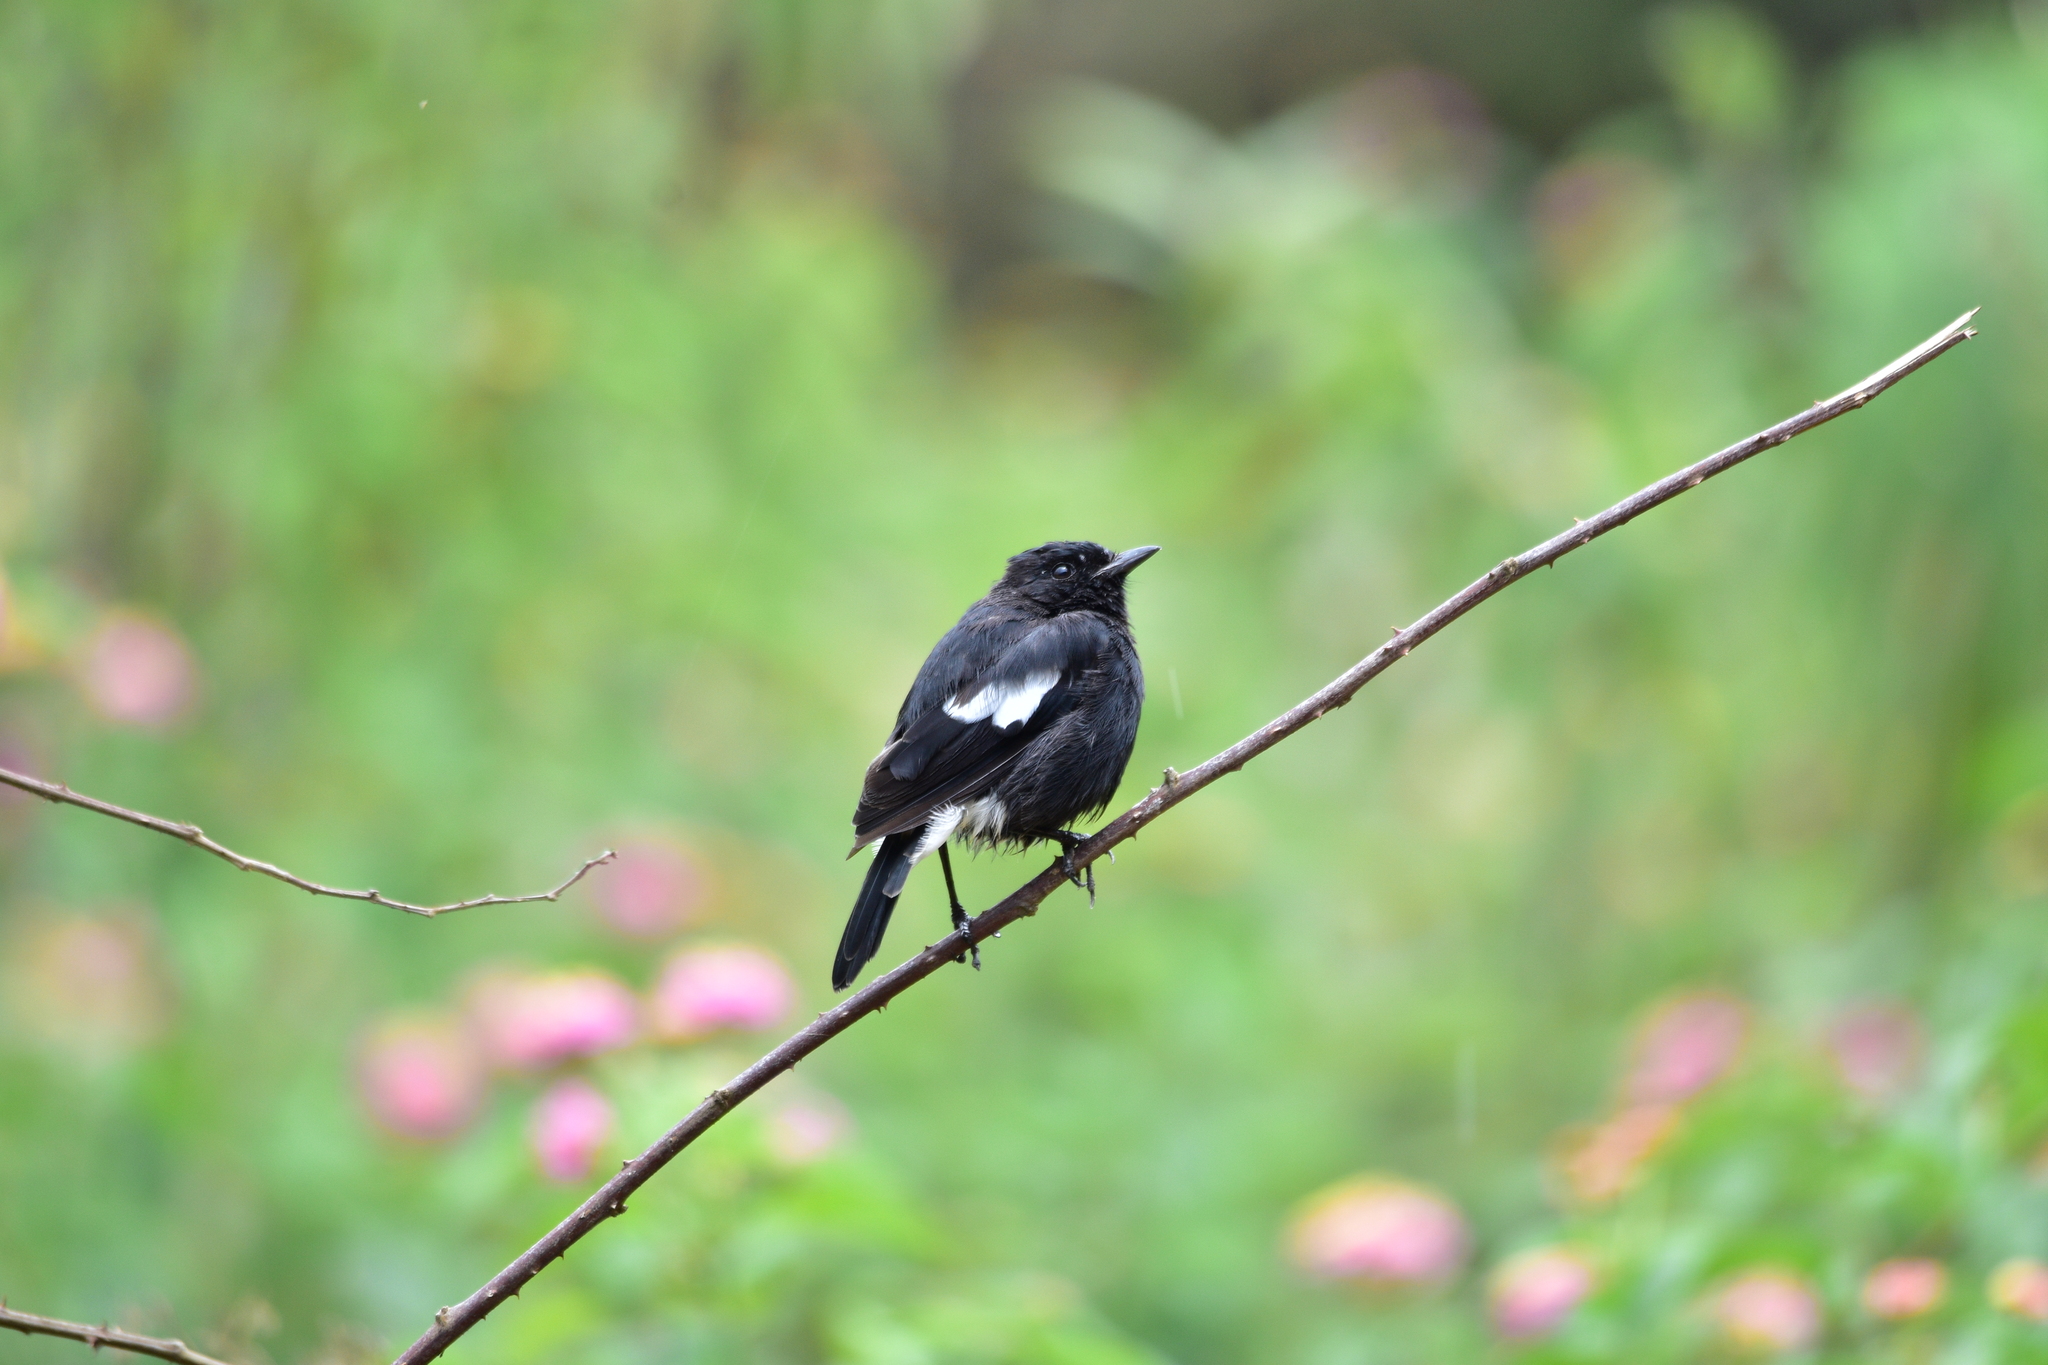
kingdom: Animalia
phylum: Chordata
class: Aves
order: Passeriformes
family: Muscicapidae
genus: Saxicola
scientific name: Saxicola caprata
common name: Pied bush chat
